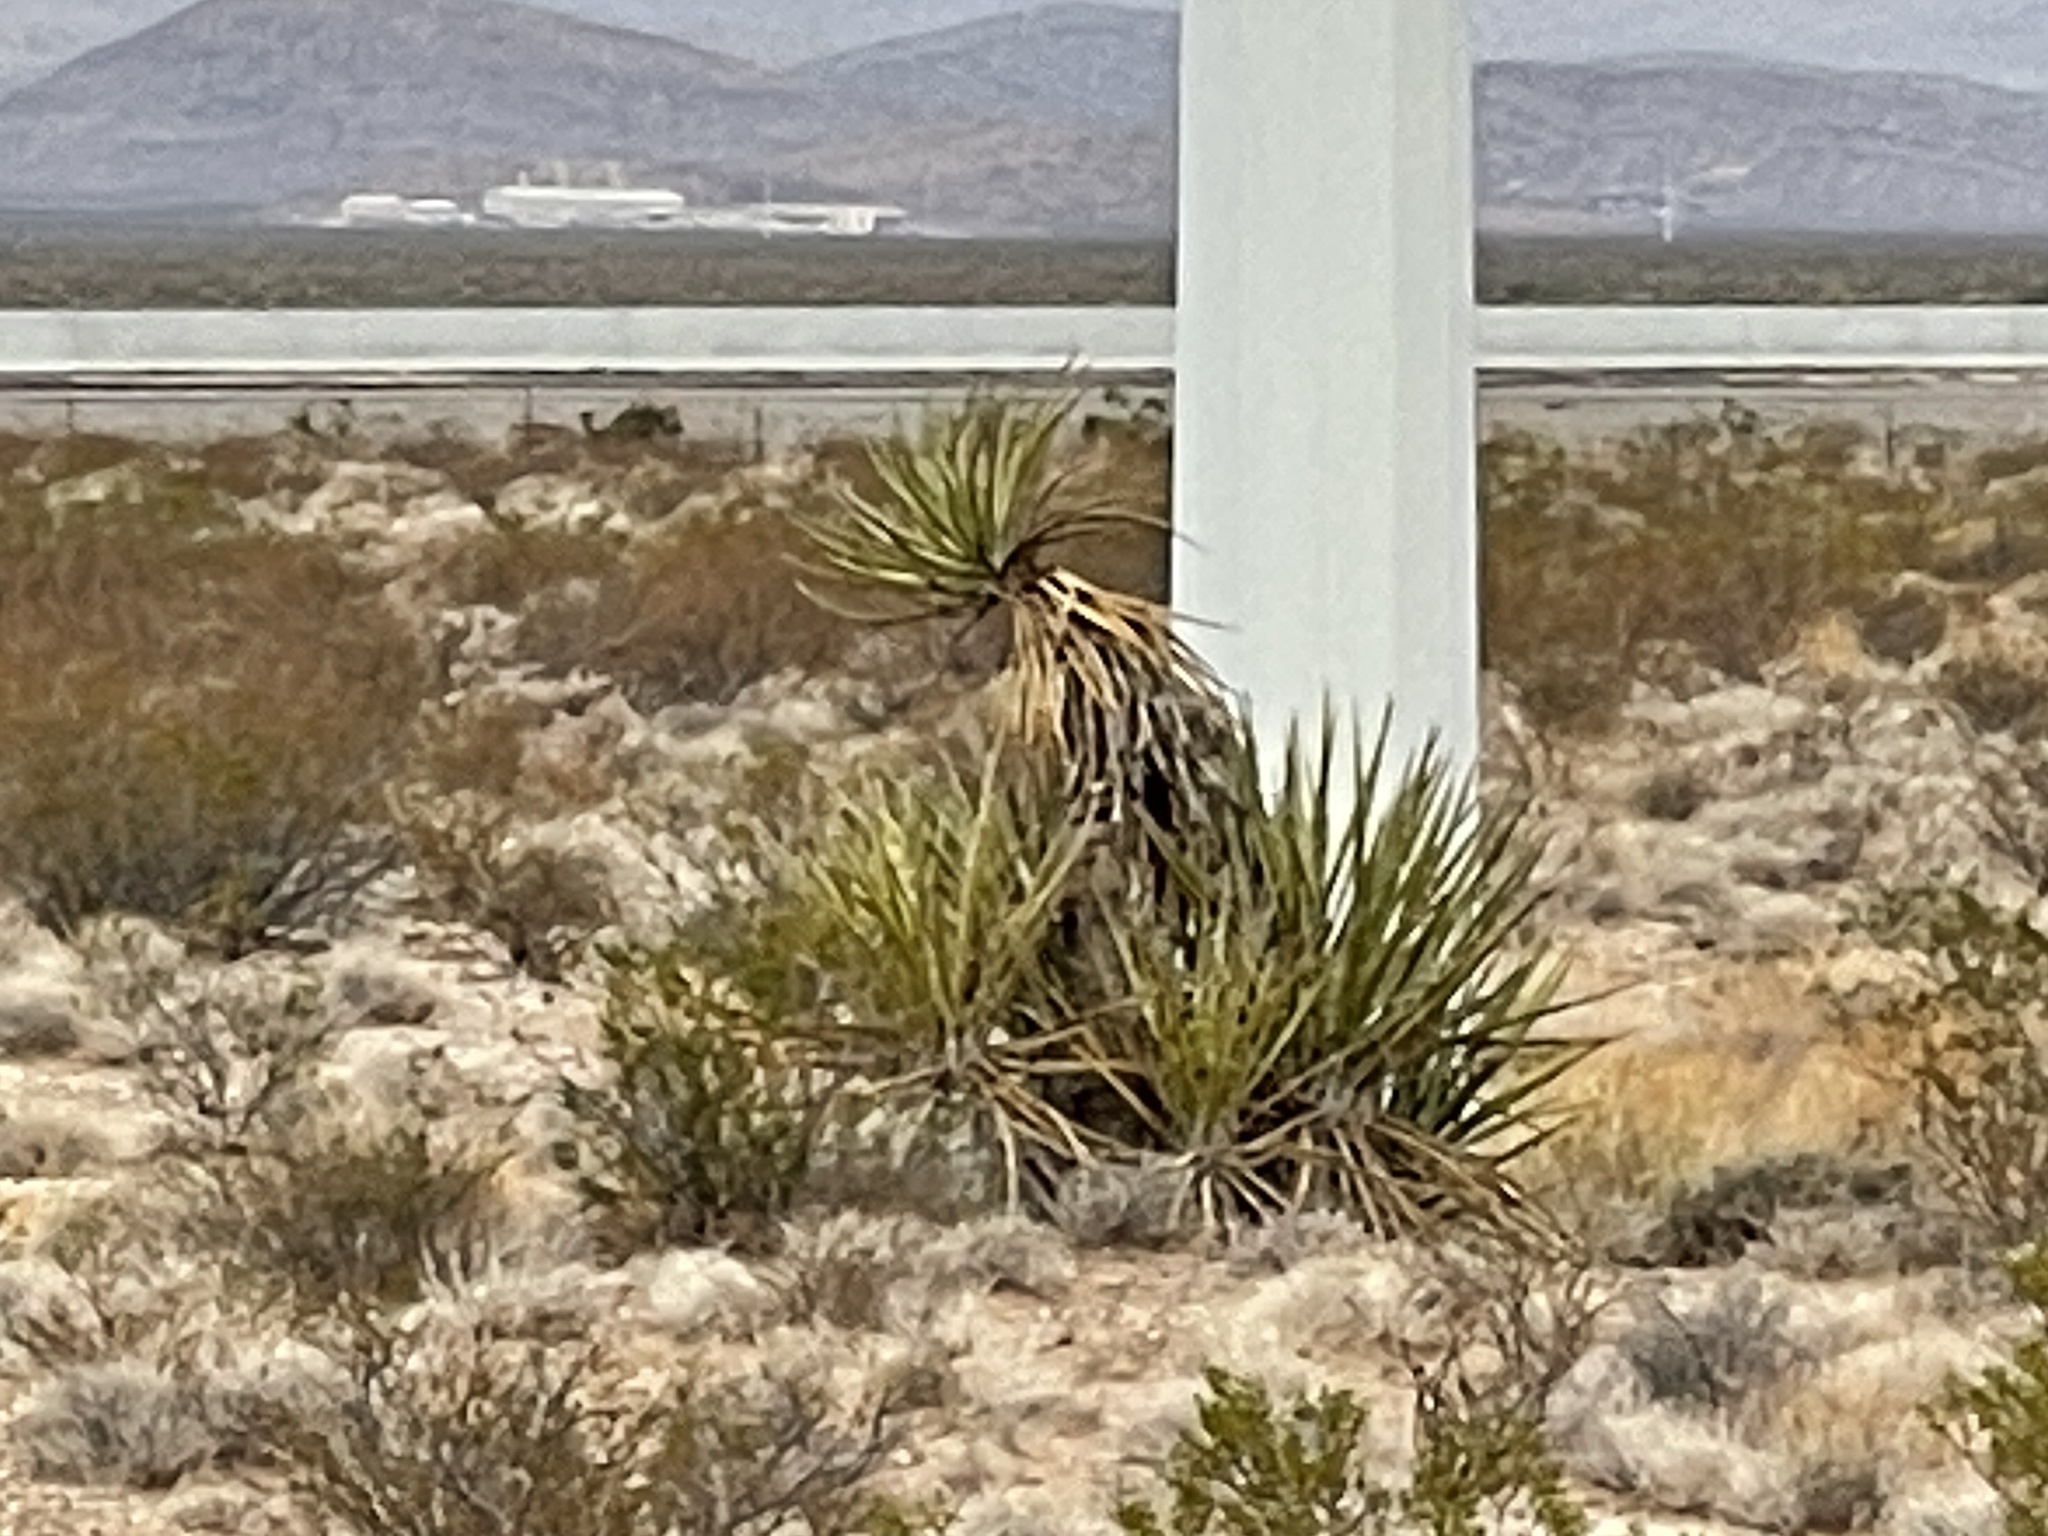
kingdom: Plantae
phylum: Tracheophyta
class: Liliopsida
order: Asparagales
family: Asparagaceae
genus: Yucca
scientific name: Yucca schidigera
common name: Mojave yucca
